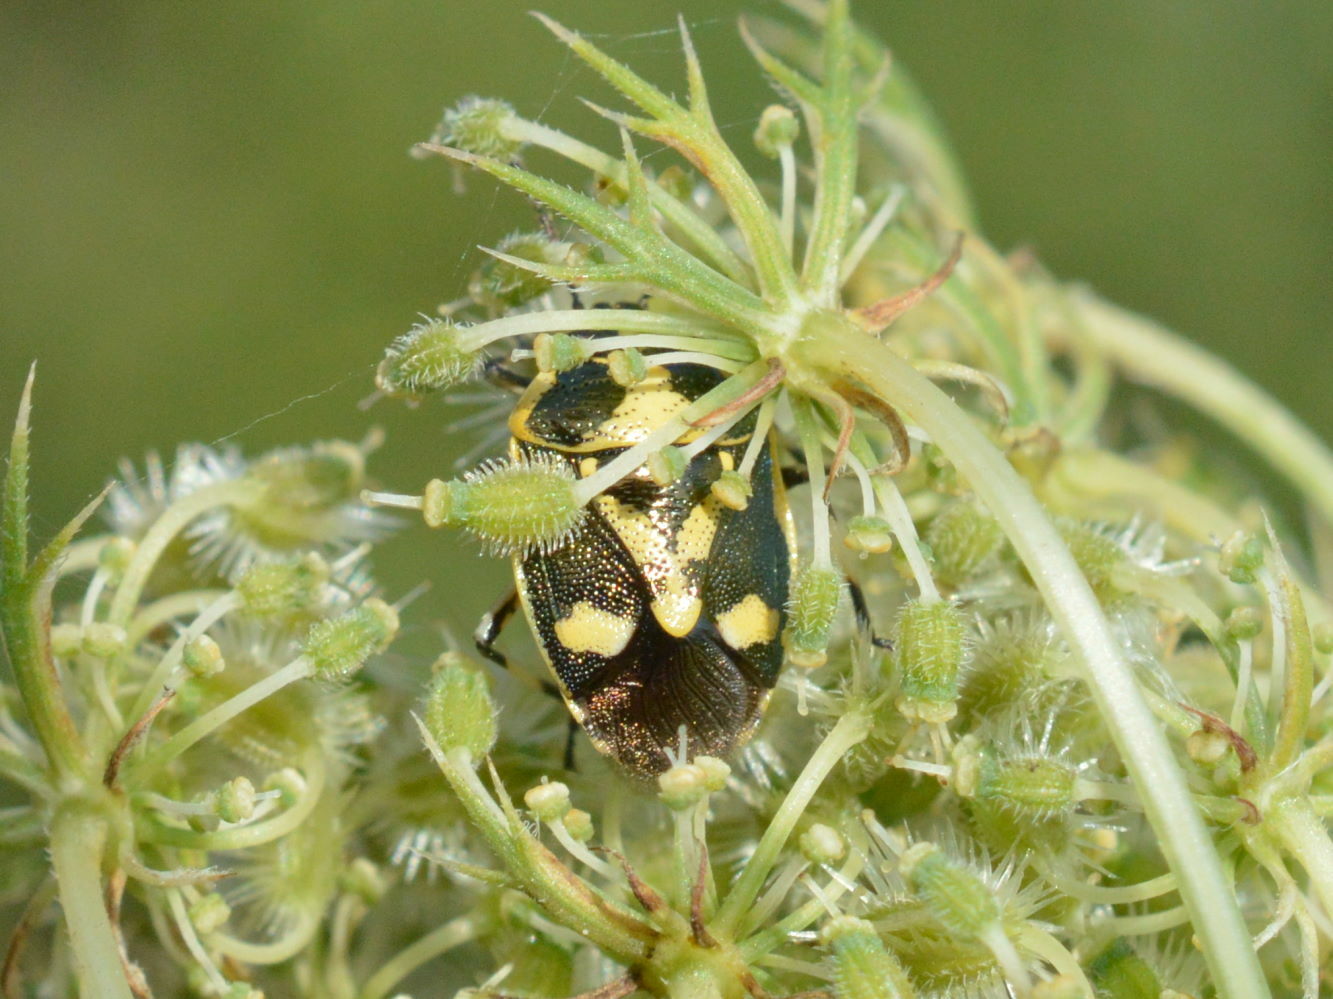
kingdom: Animalia
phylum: Arthropoda
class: Insecta
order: Hemiptera
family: Pentatomidae
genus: Eurydema
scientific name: Eurydema oleracea
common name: Cabbage bug
